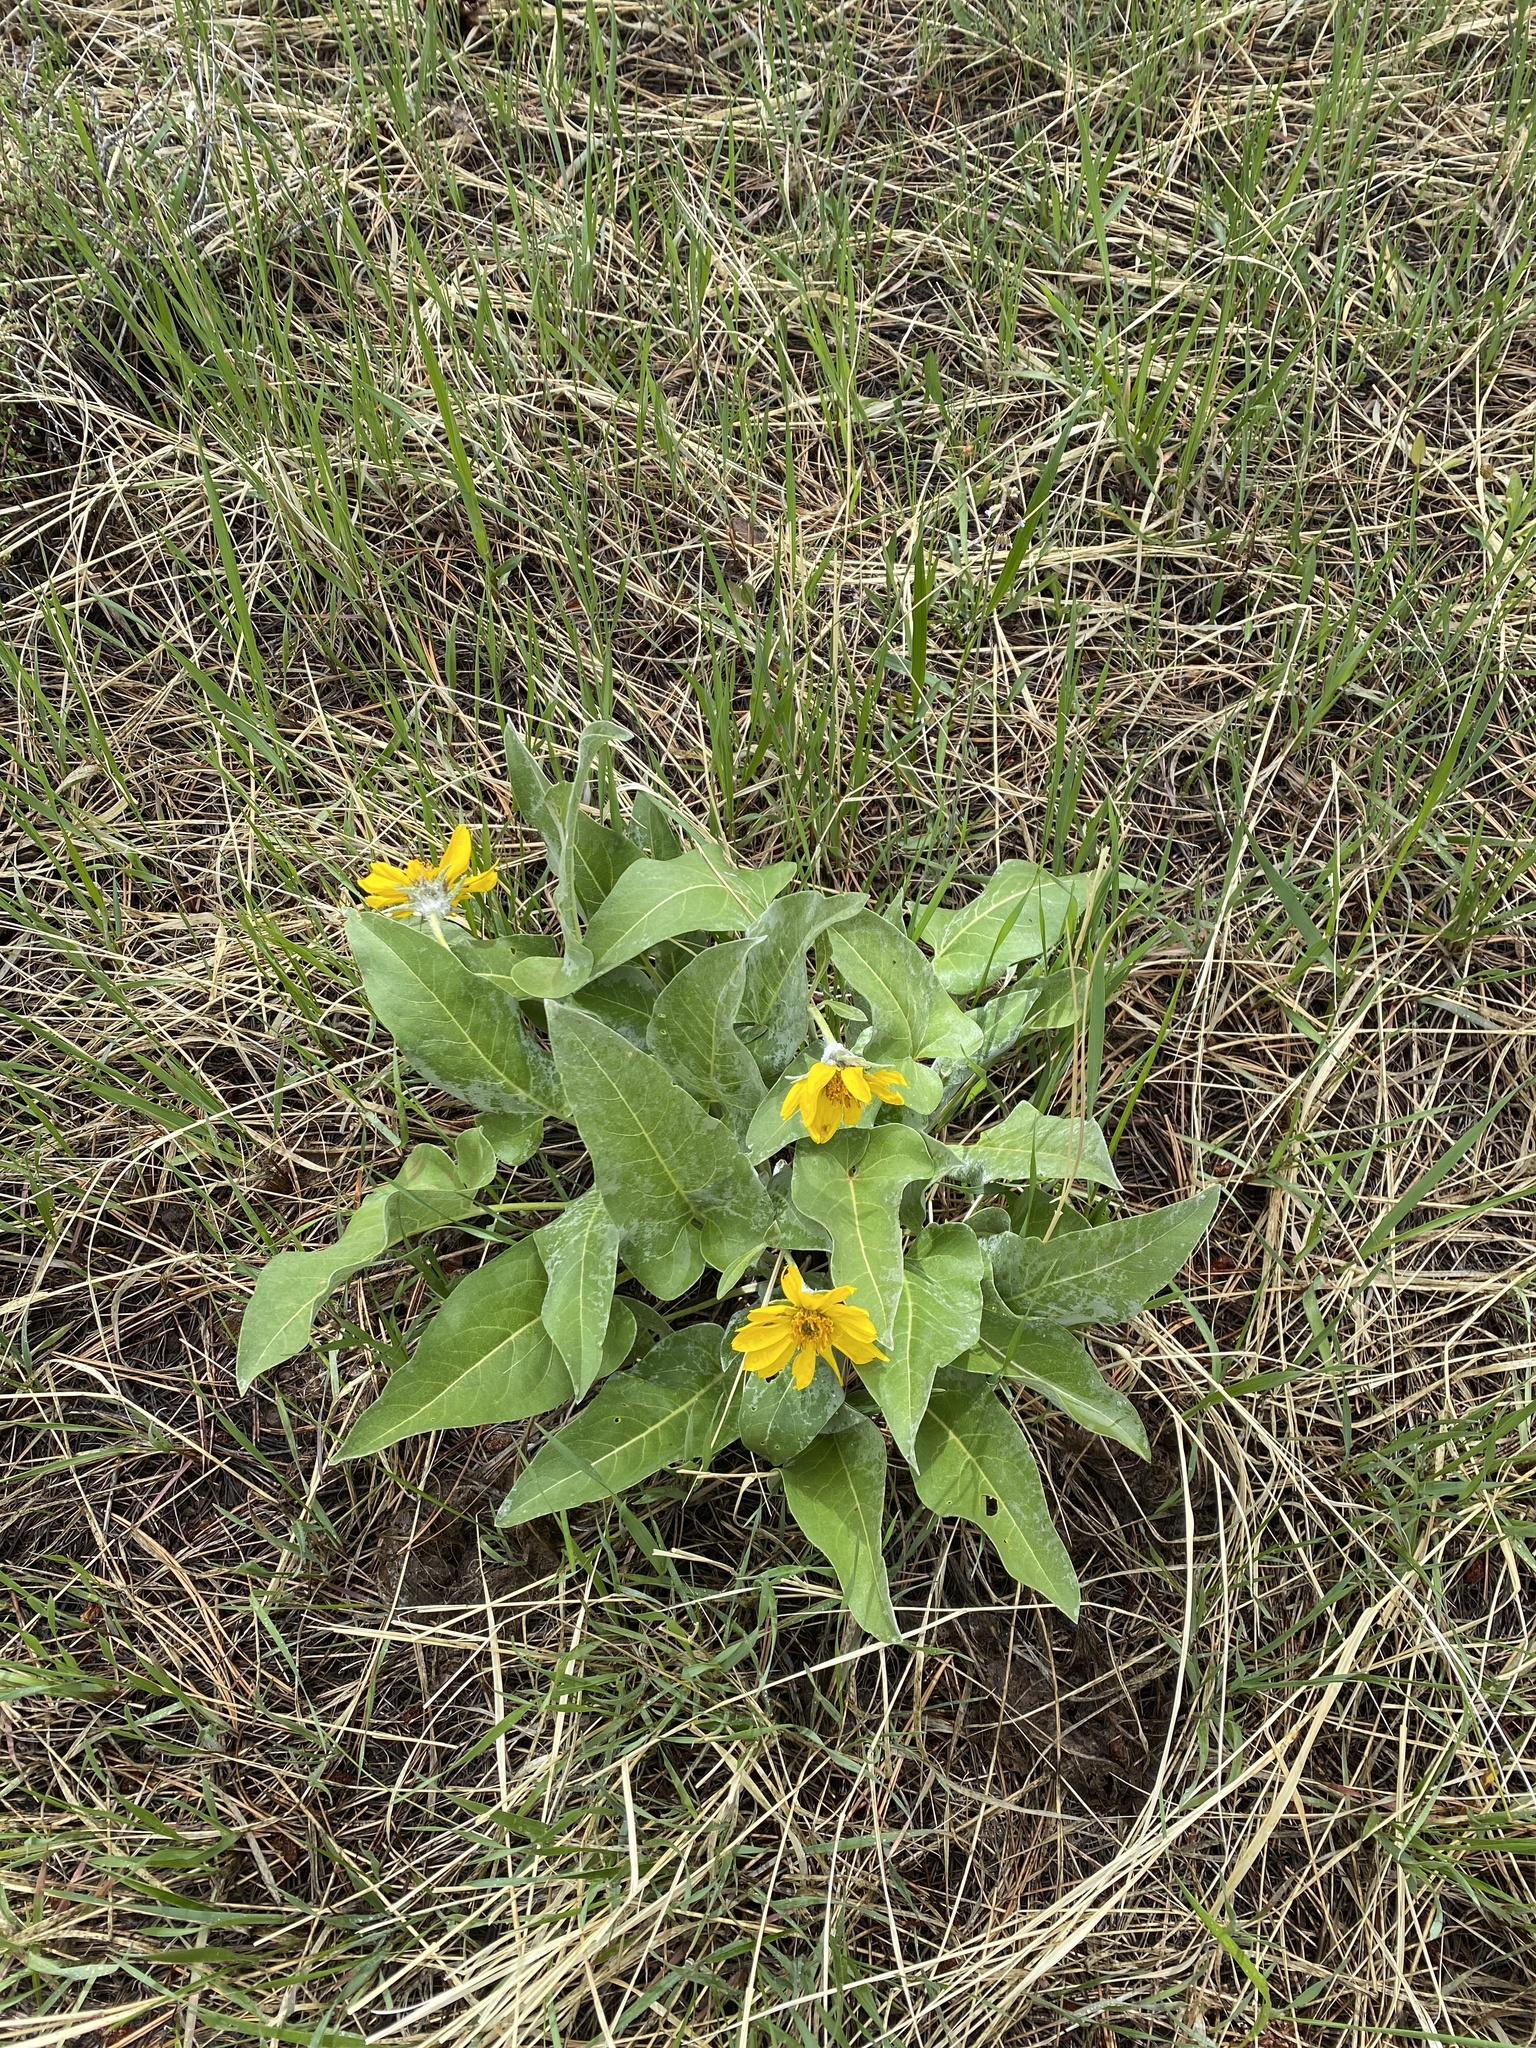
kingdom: Plantae
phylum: Tracheophyta
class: Magnoliopsida
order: Asterales
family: Asteraceae
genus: Wyethia
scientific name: Wyethia sagittata
